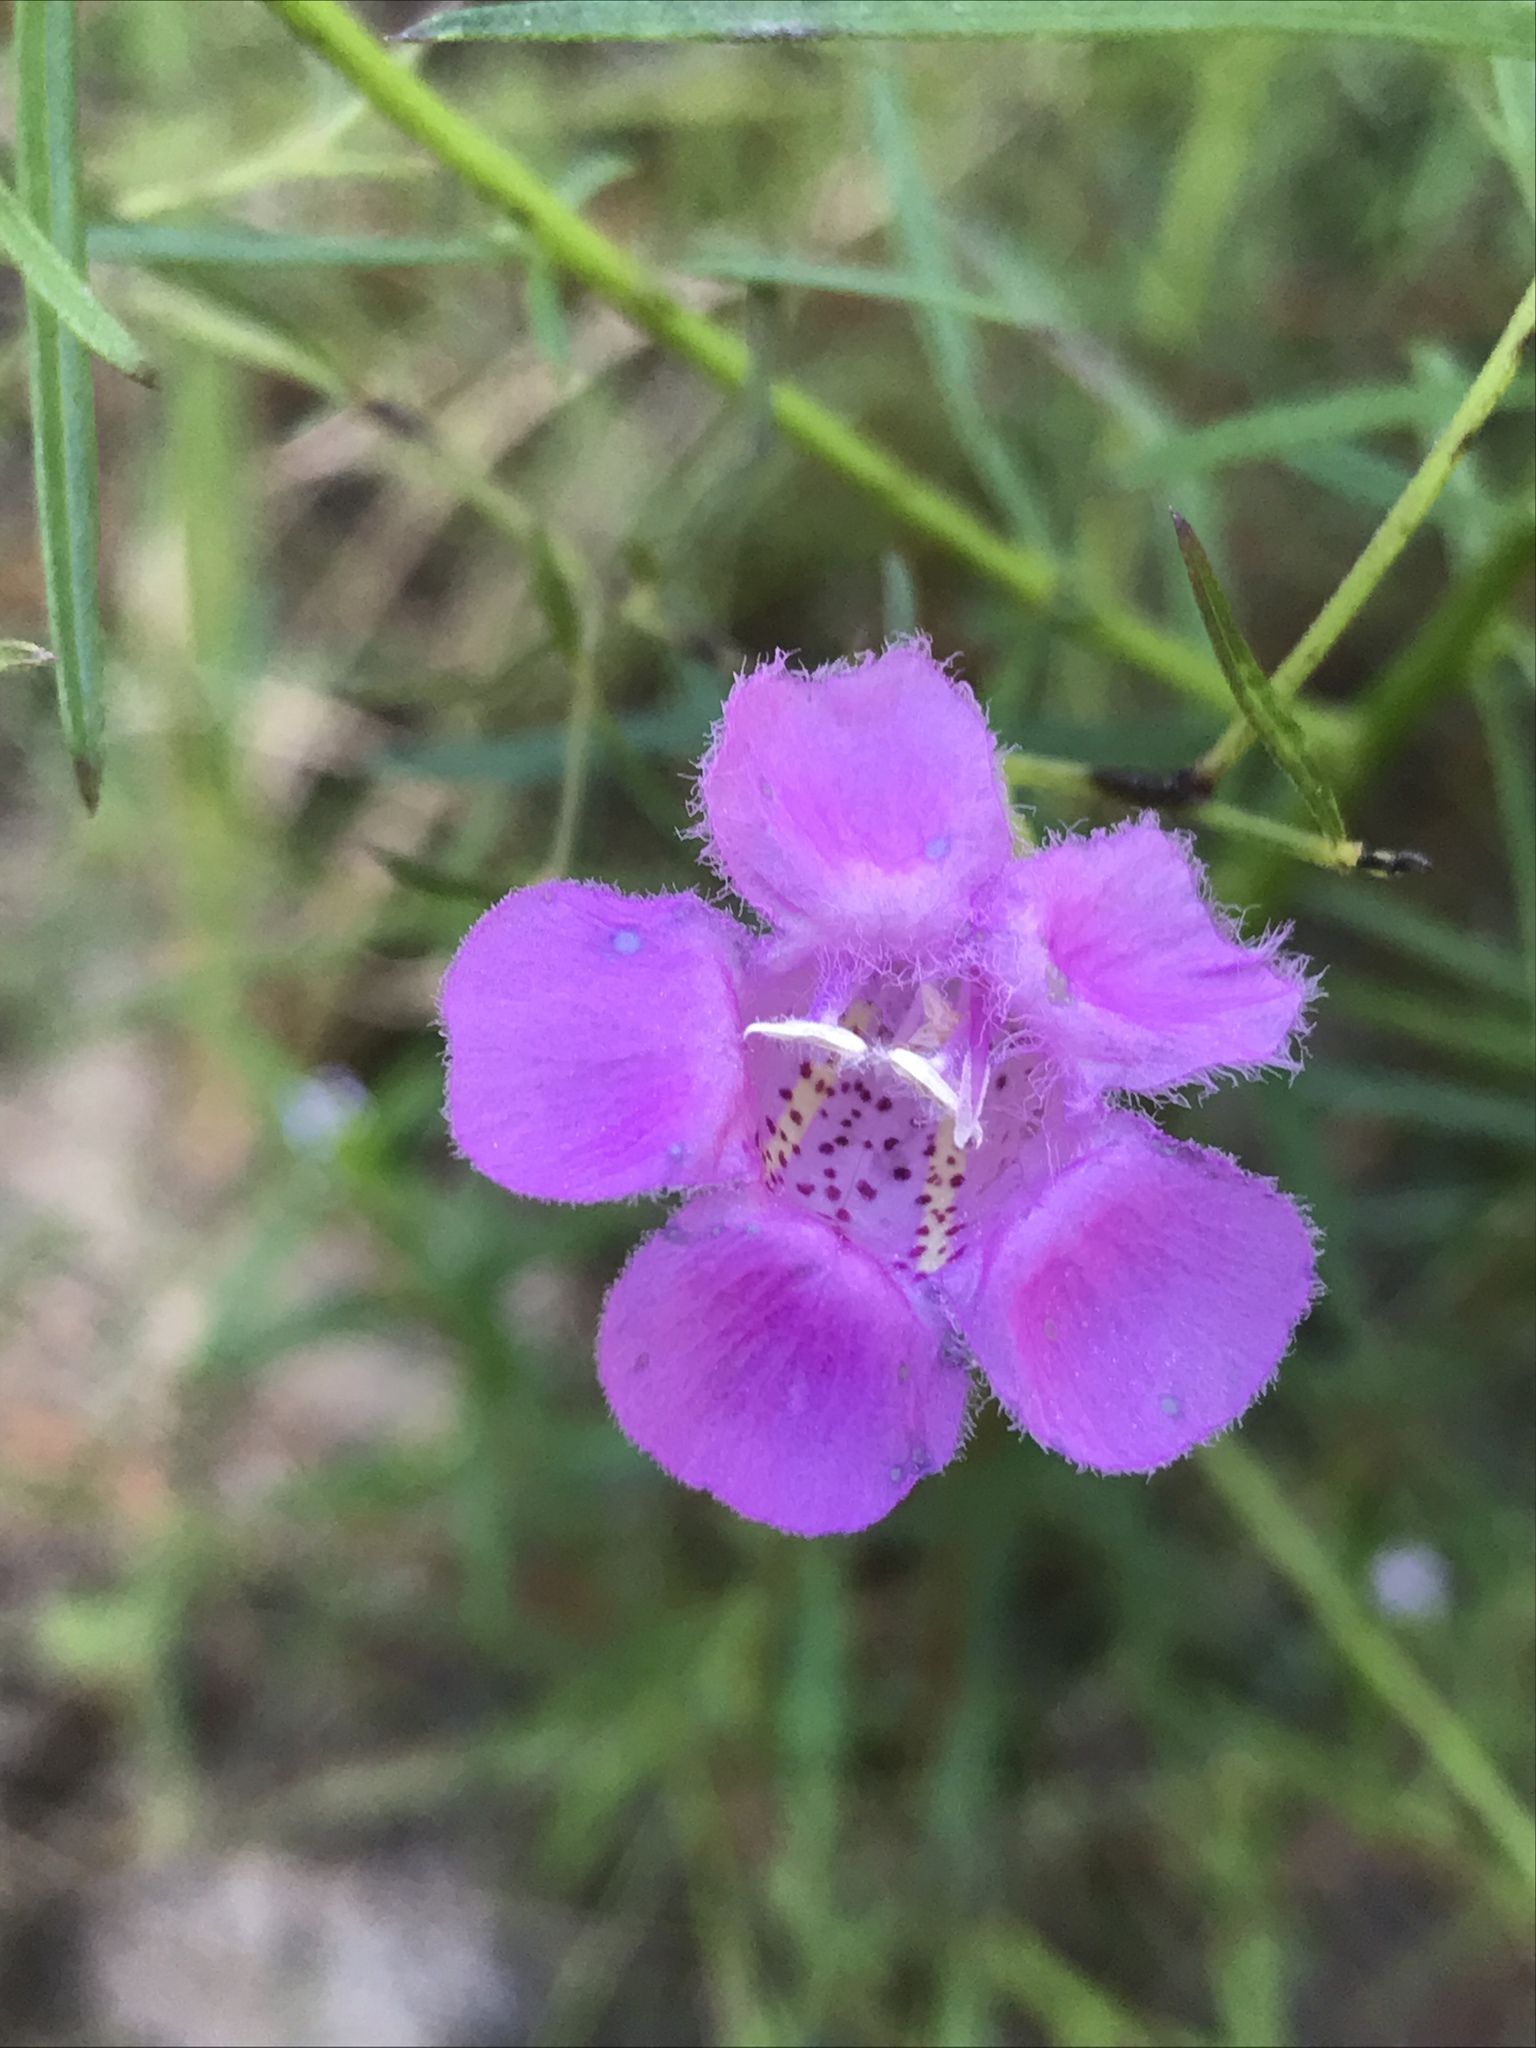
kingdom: Plantae
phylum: Tracheophyta
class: Magnoliopsida
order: Lamiales
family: Orobanchaceae
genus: Agalinis
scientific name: Agalinis harperi
